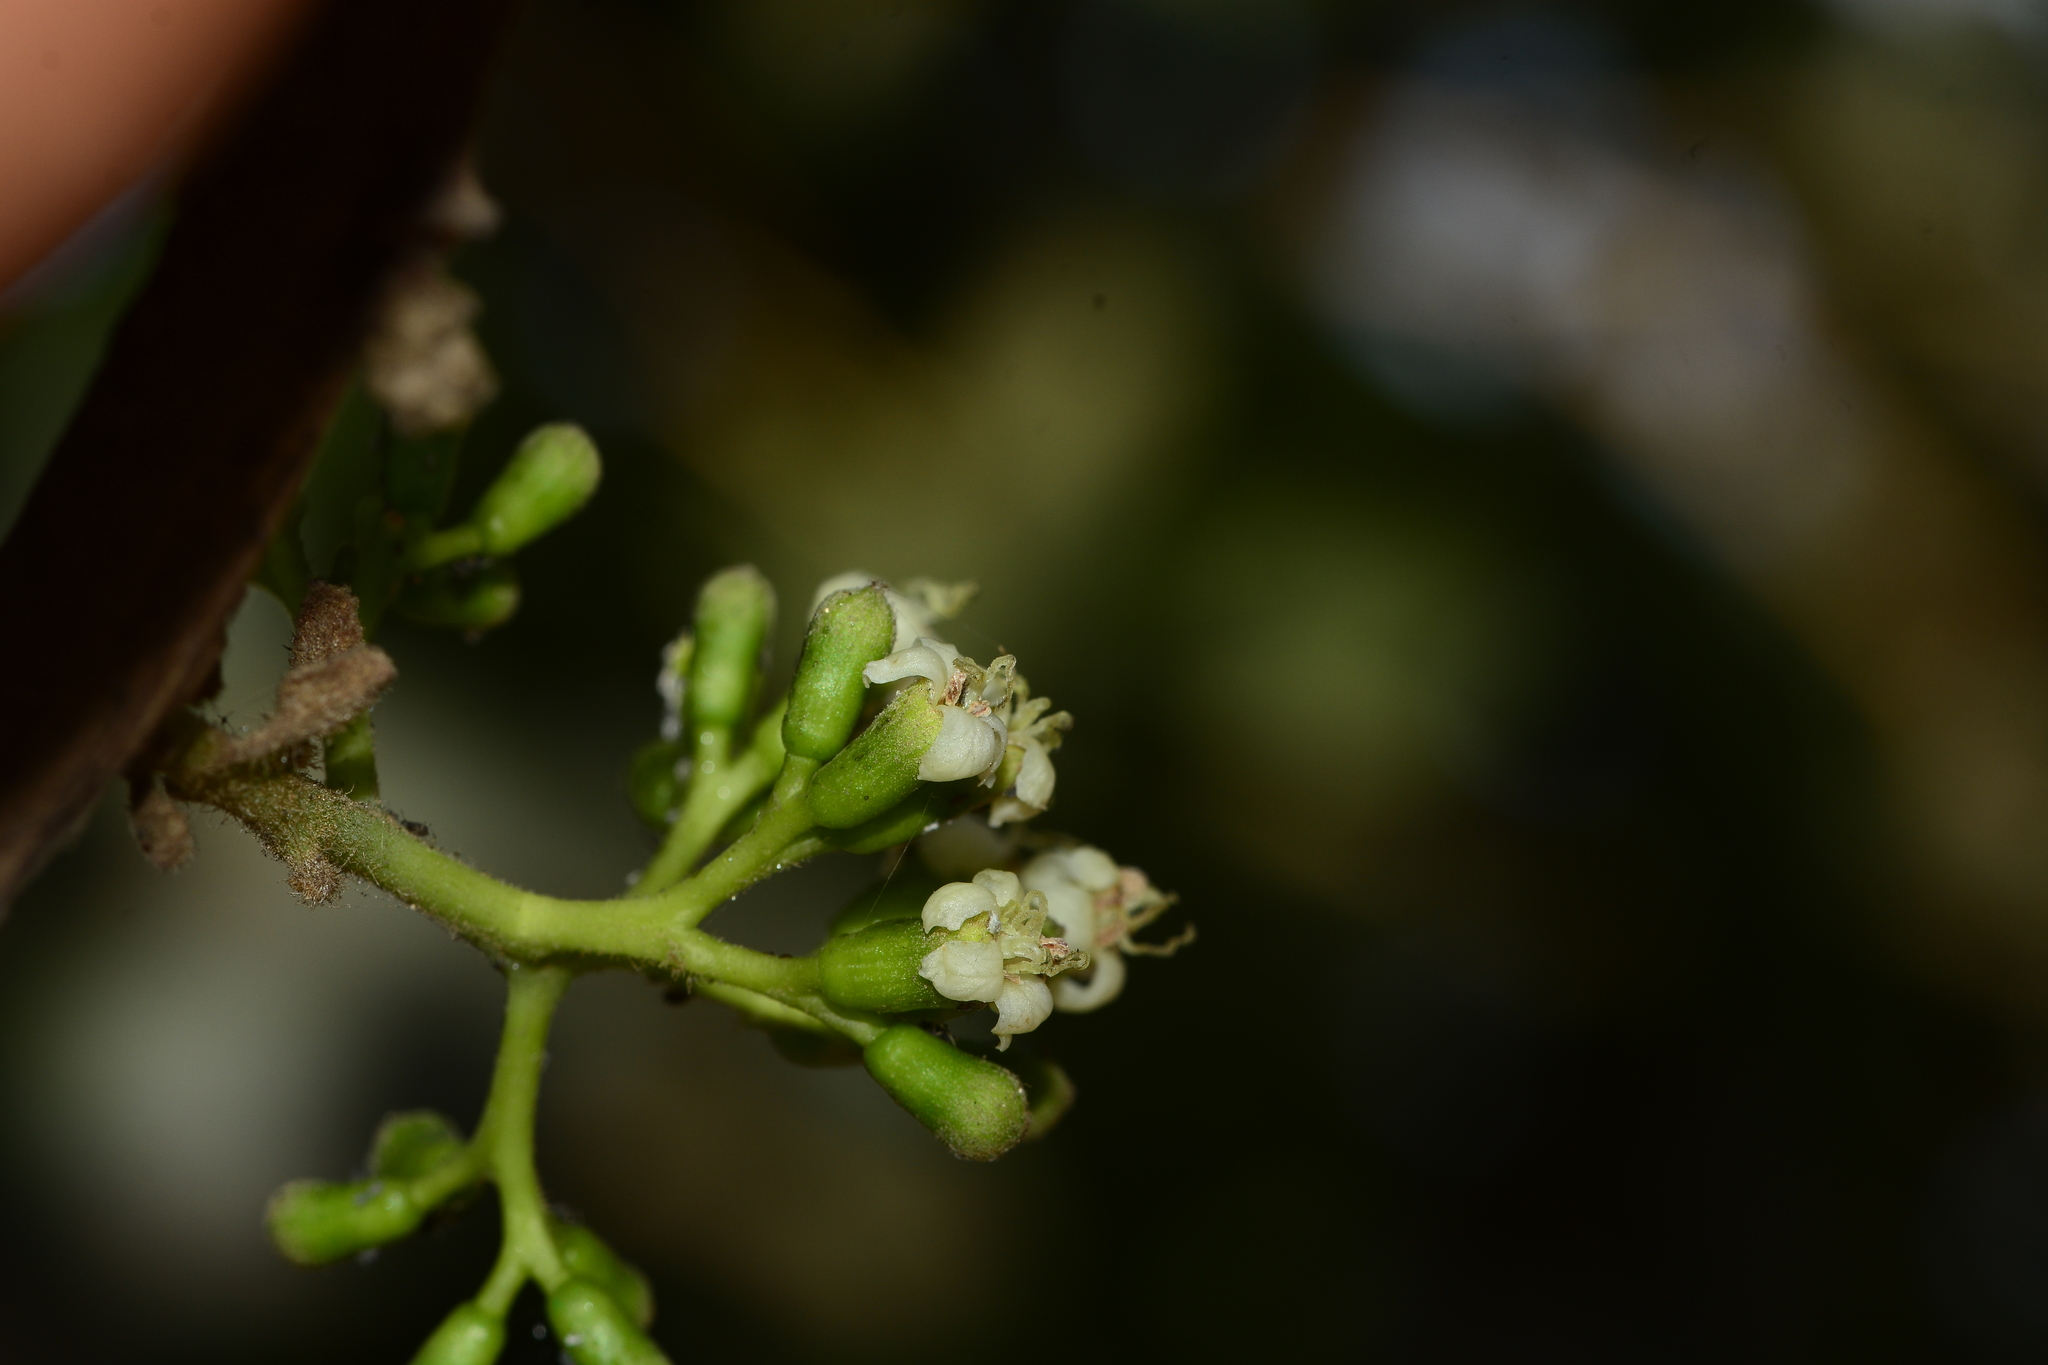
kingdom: Plantae
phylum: Tracheophyta
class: Magnoliopsida
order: Boraginales
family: Cordiaceae
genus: Cordia
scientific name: Cordia dichotoma
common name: Fragrant manjack
